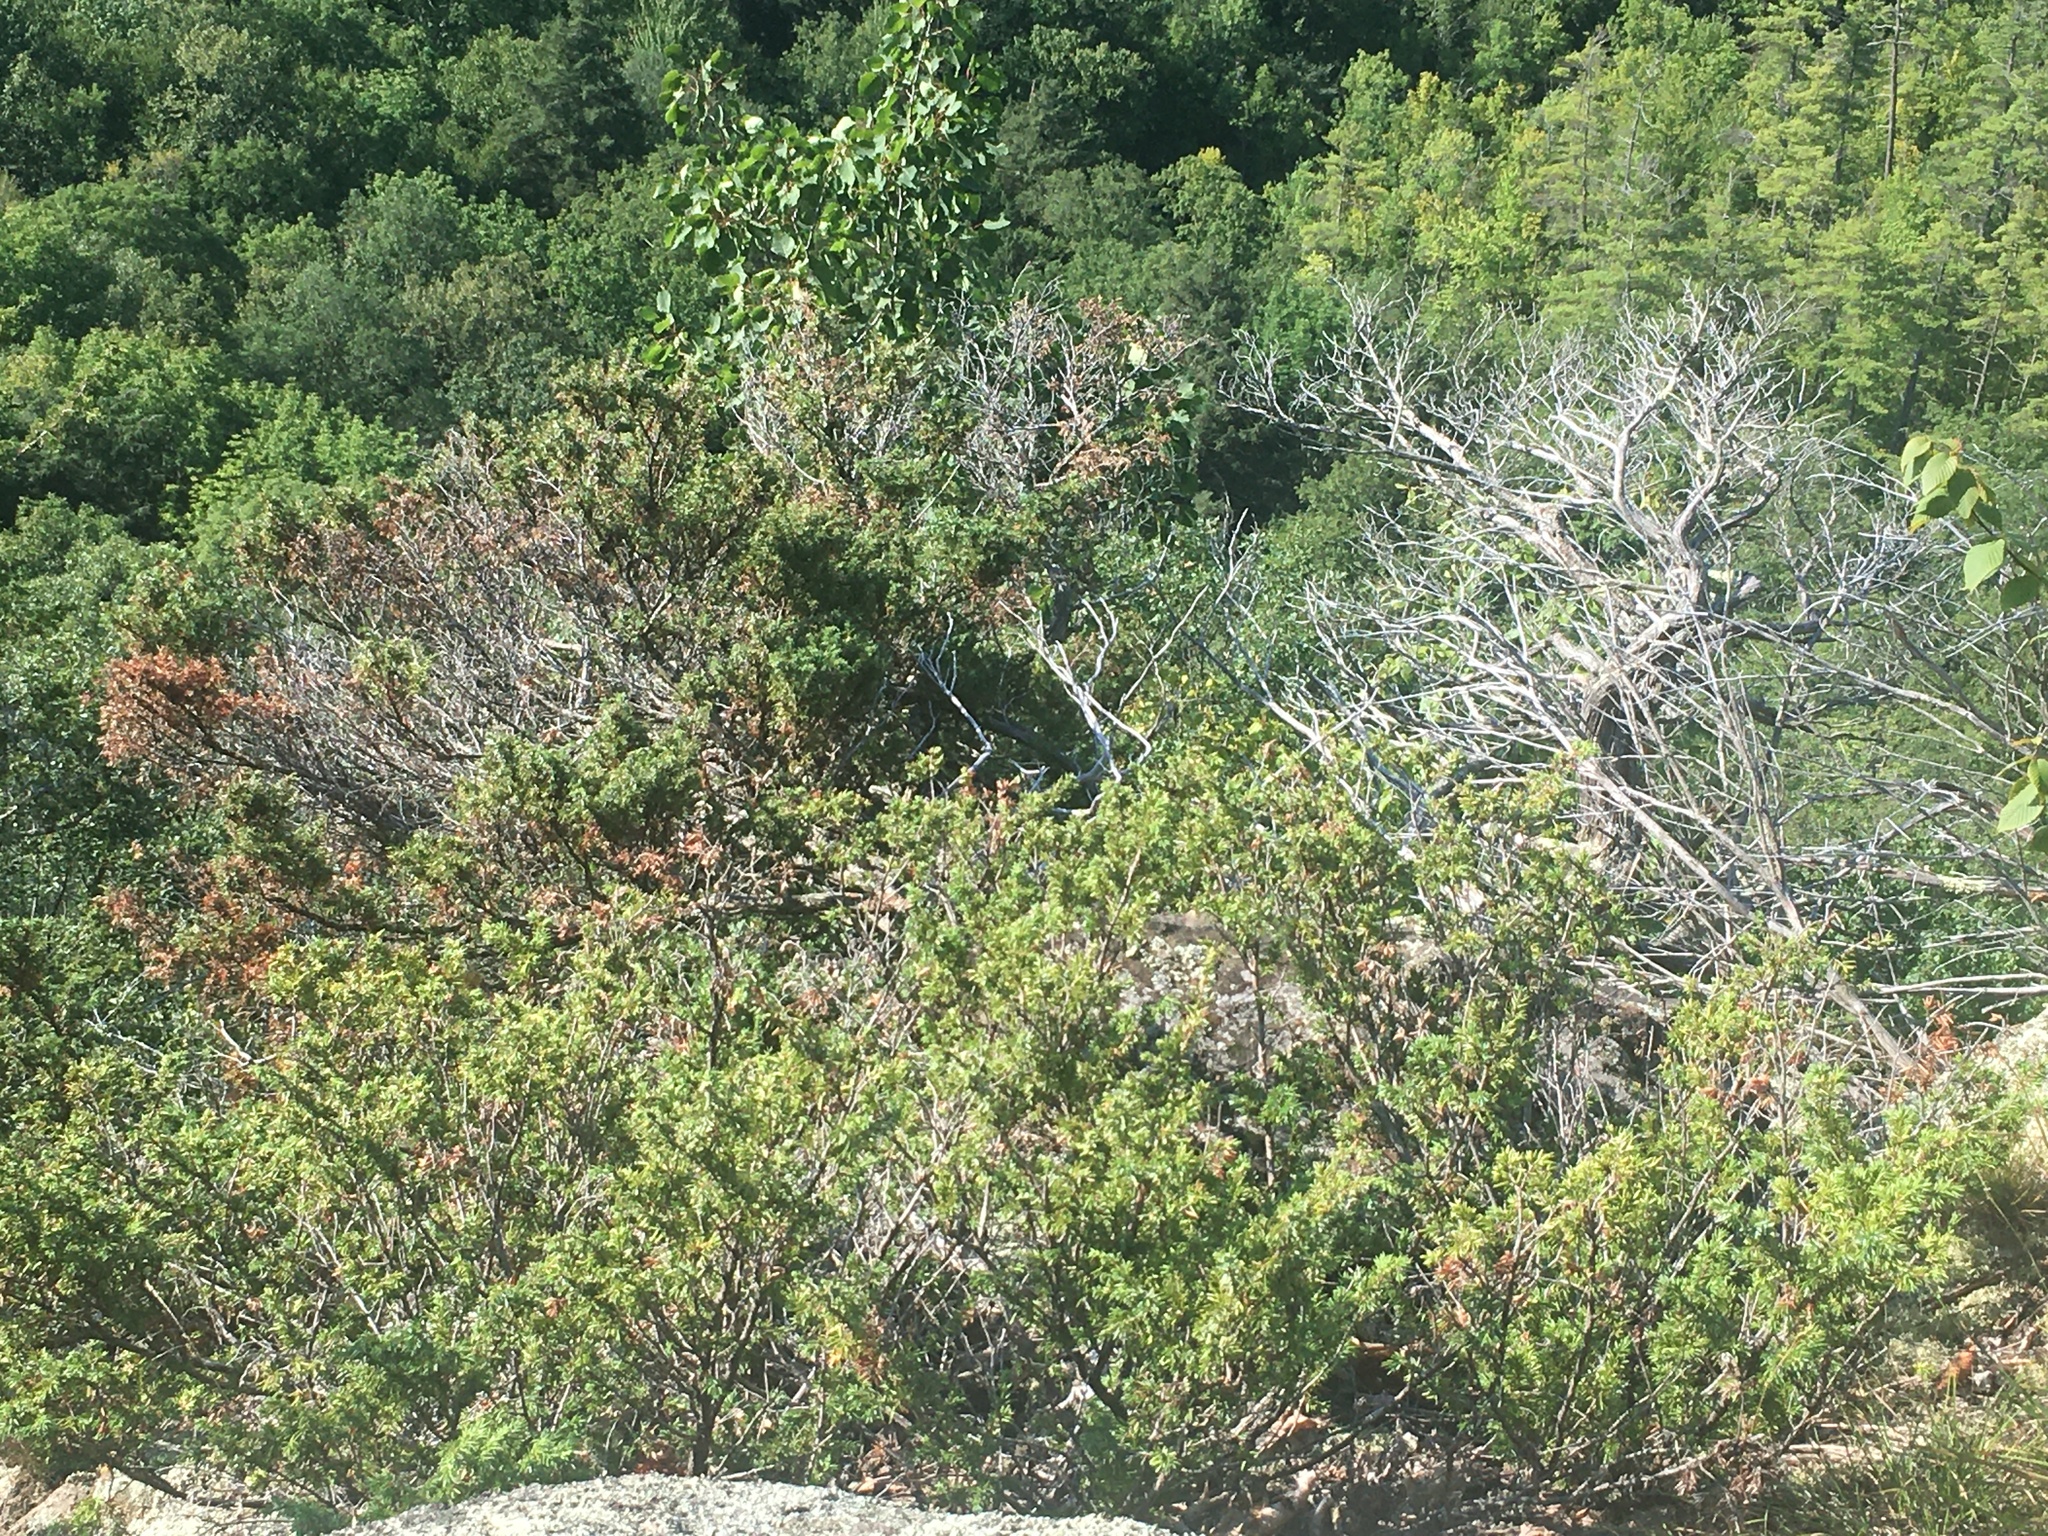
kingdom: Plantae
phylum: Tracheophyta
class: Pinopsida
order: Pinales
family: Cupressaceae
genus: Juniperus
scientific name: Juniperus communis
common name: Common juniper
